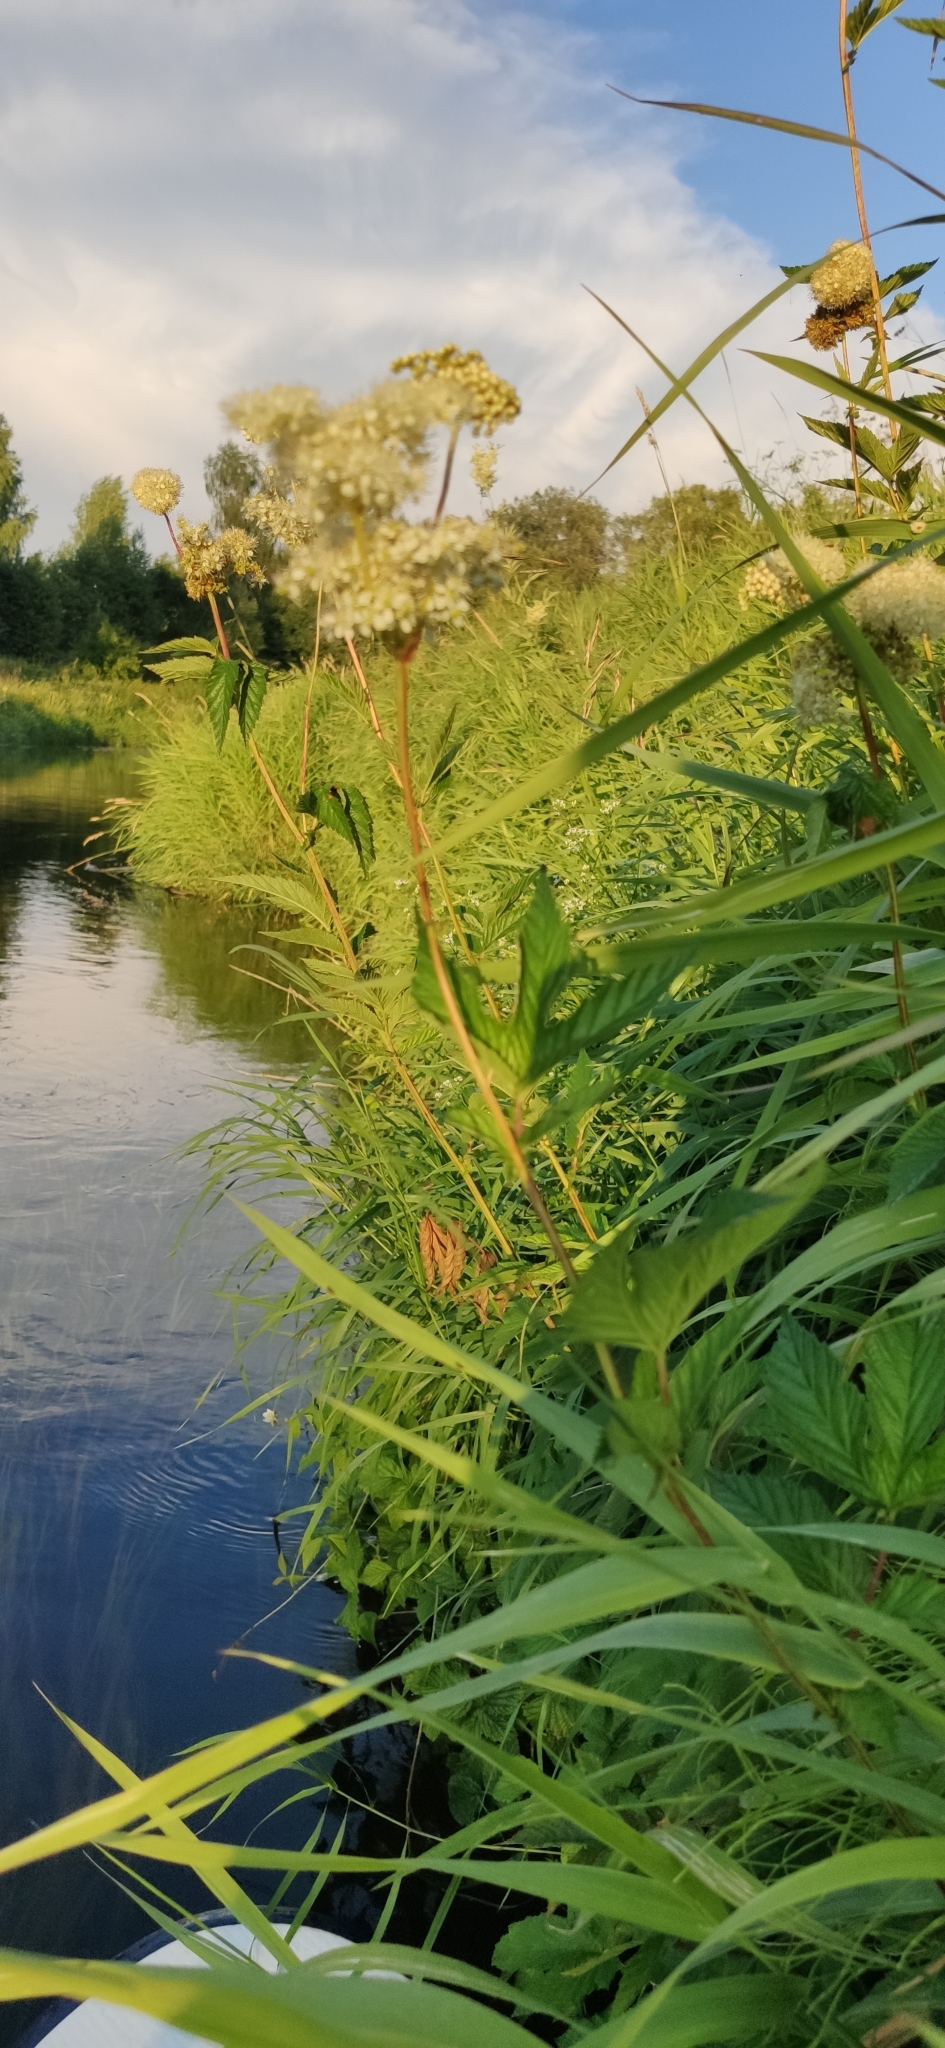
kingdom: Plantae
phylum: Tracheophyta
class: Magnoliopsida
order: Rosales
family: Rosaceae
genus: Filipendula
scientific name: Filipendula ulmaria
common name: Meadowsweet
